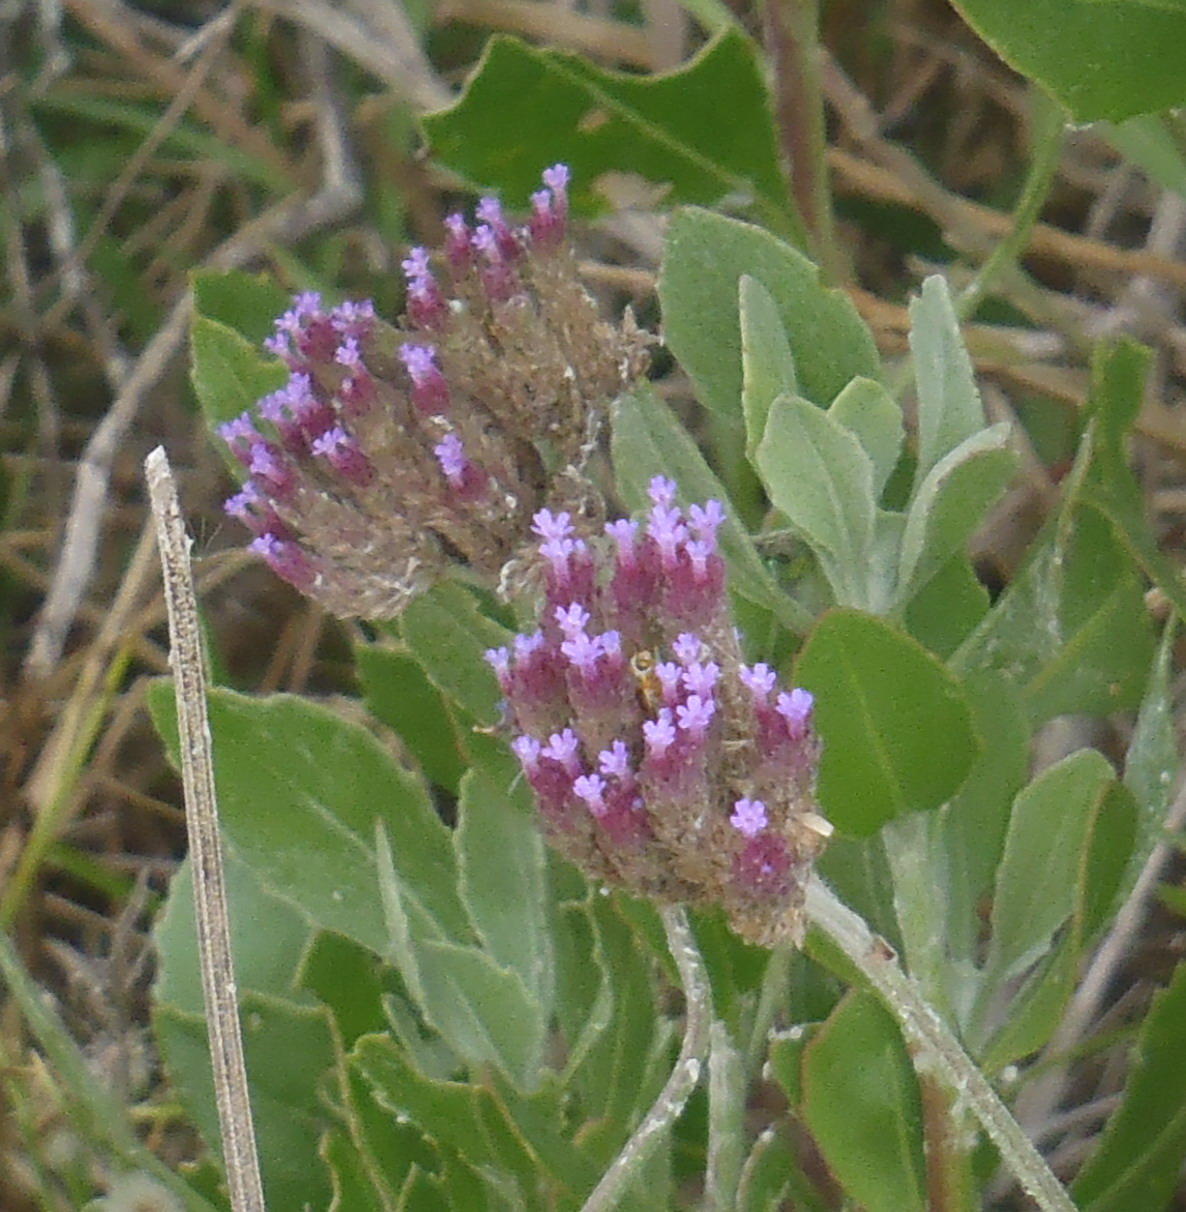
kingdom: Plantae
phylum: Tracheophyta
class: Magnoliopsida
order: Lamiales
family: Verbenaceae
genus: Verbena
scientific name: Verbena bonariensis
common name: Purpletop vervain
